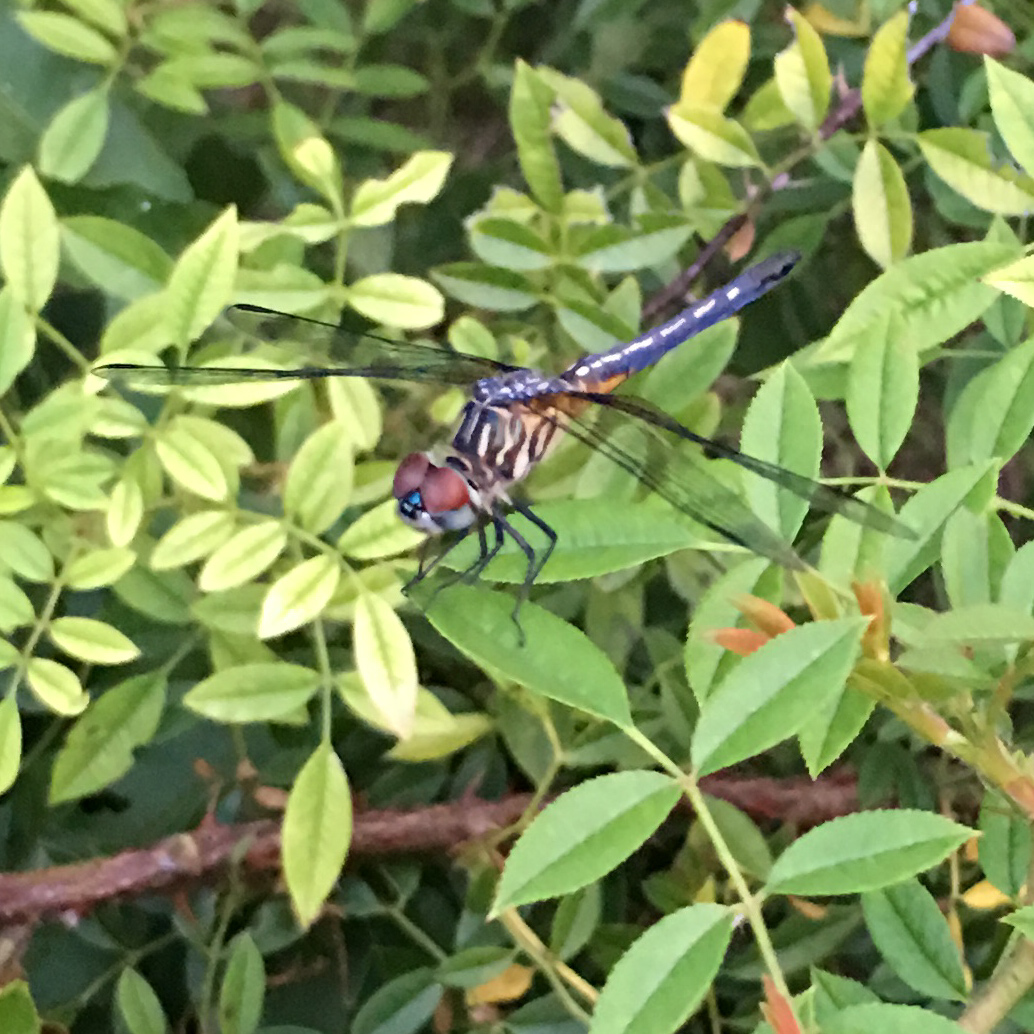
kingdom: Animalia
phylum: Arthropoda
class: Insecta
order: Odonata
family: Libellulidae
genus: Pachydiplax
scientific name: Pachydiplax longipennis
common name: Blue dasher
